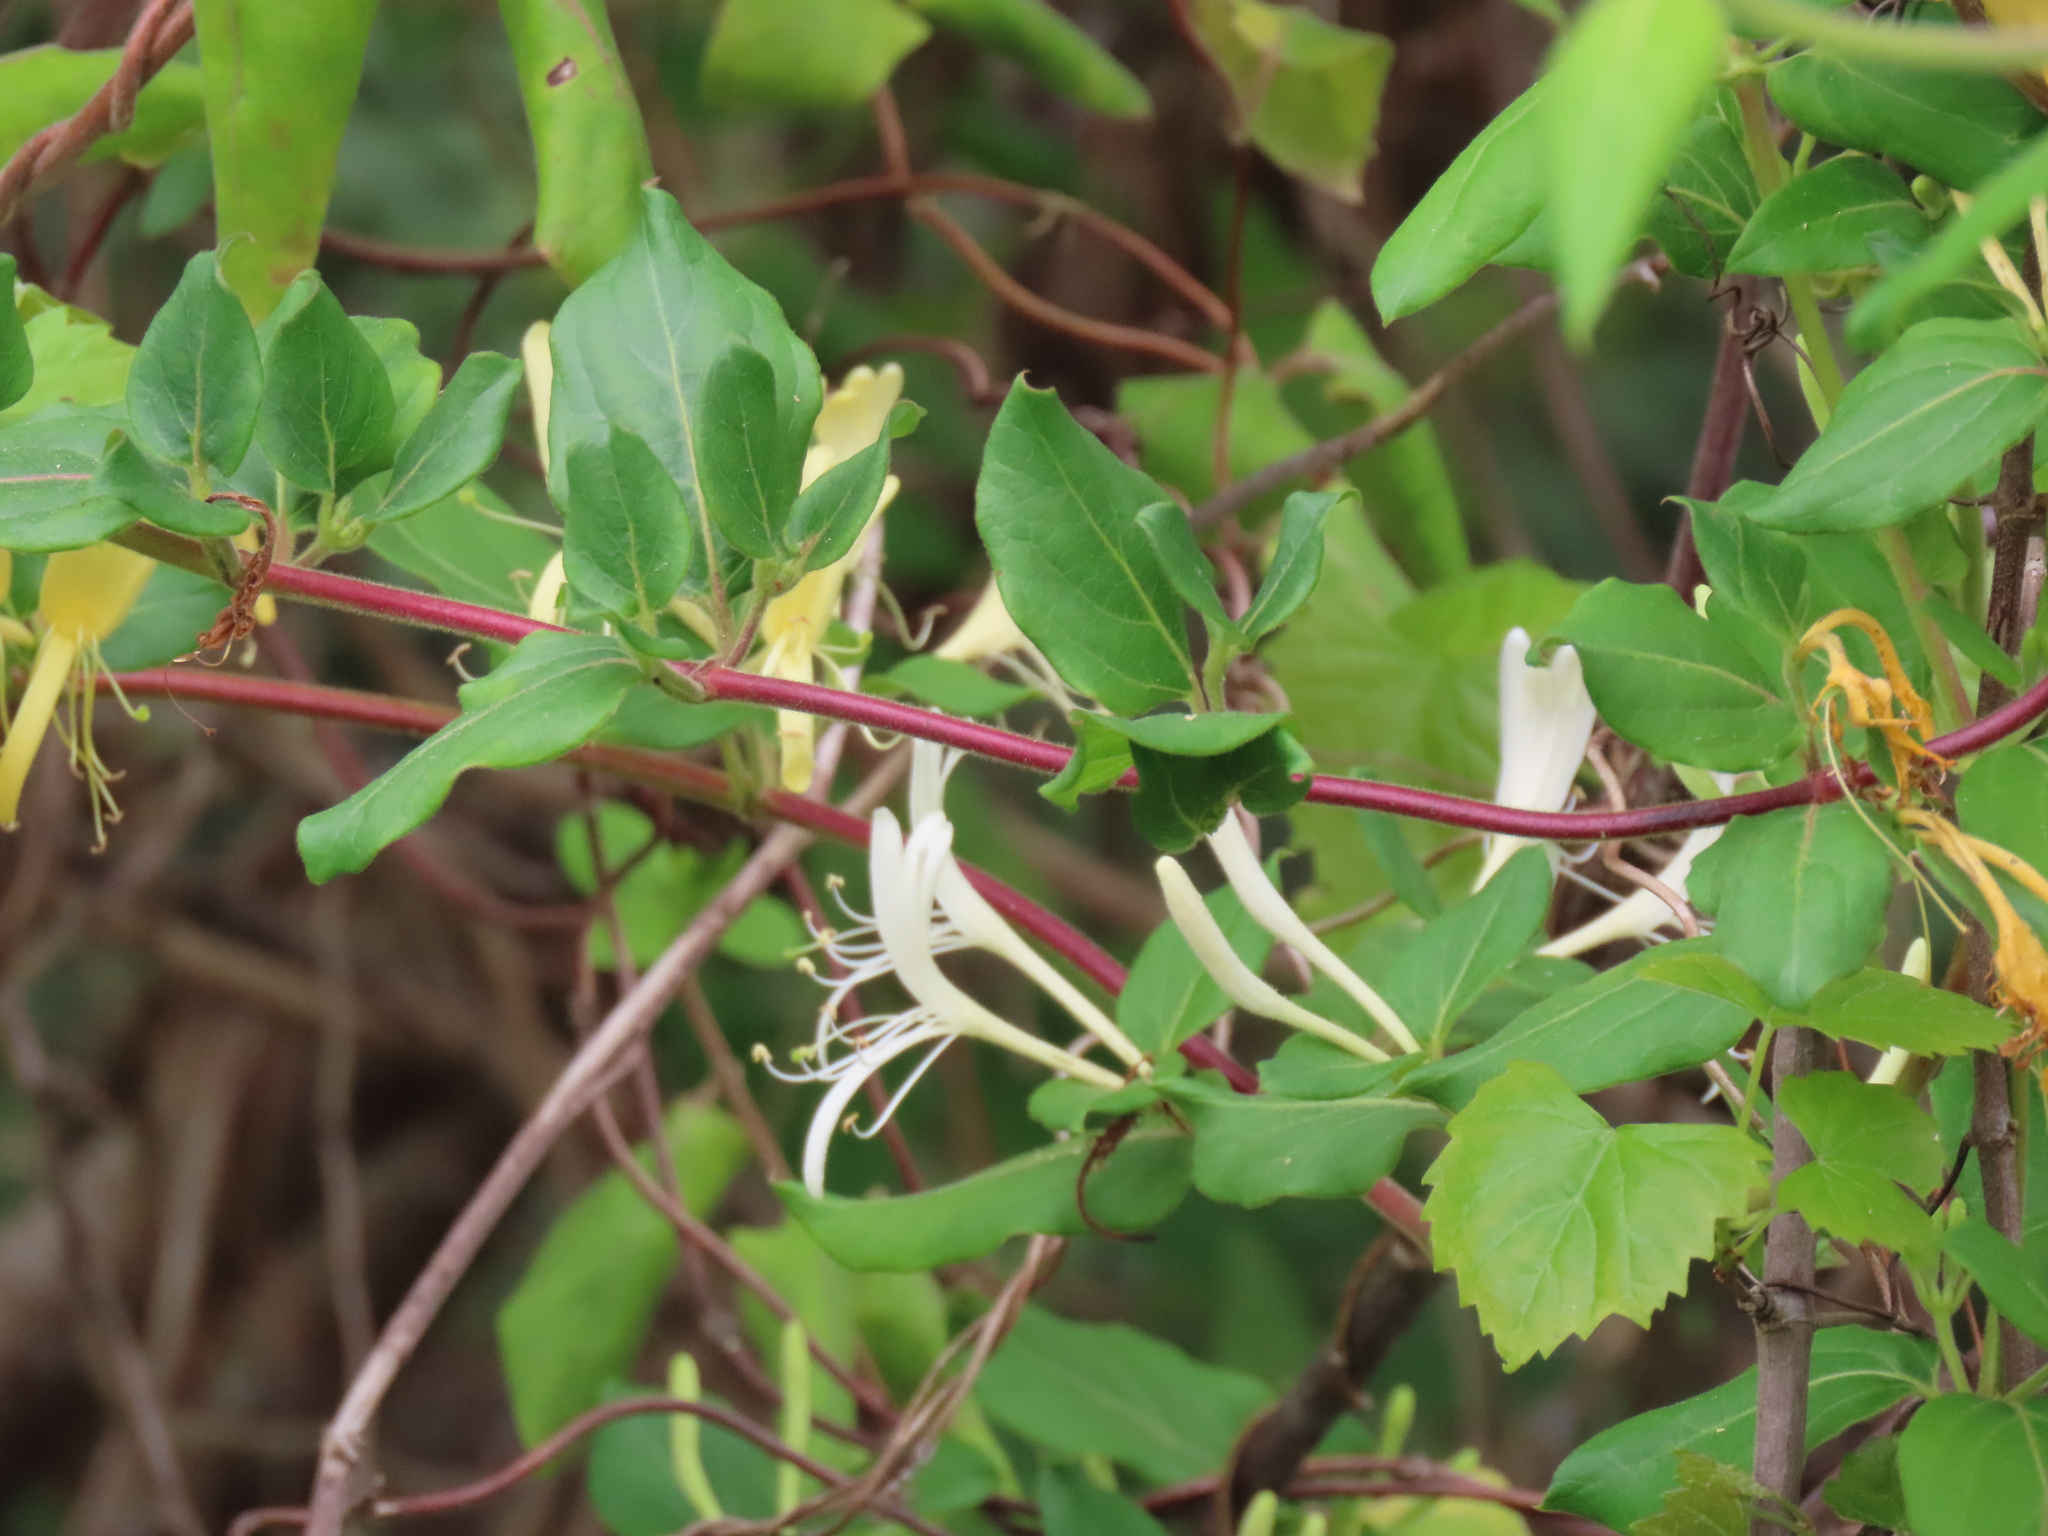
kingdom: Plantae
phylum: Tracheophyta
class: Magnoliopsida
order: Dipsacales
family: Caprifoliaceae
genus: Lonicera
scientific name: Lonicera japonica
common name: Japanese honeysuckle
